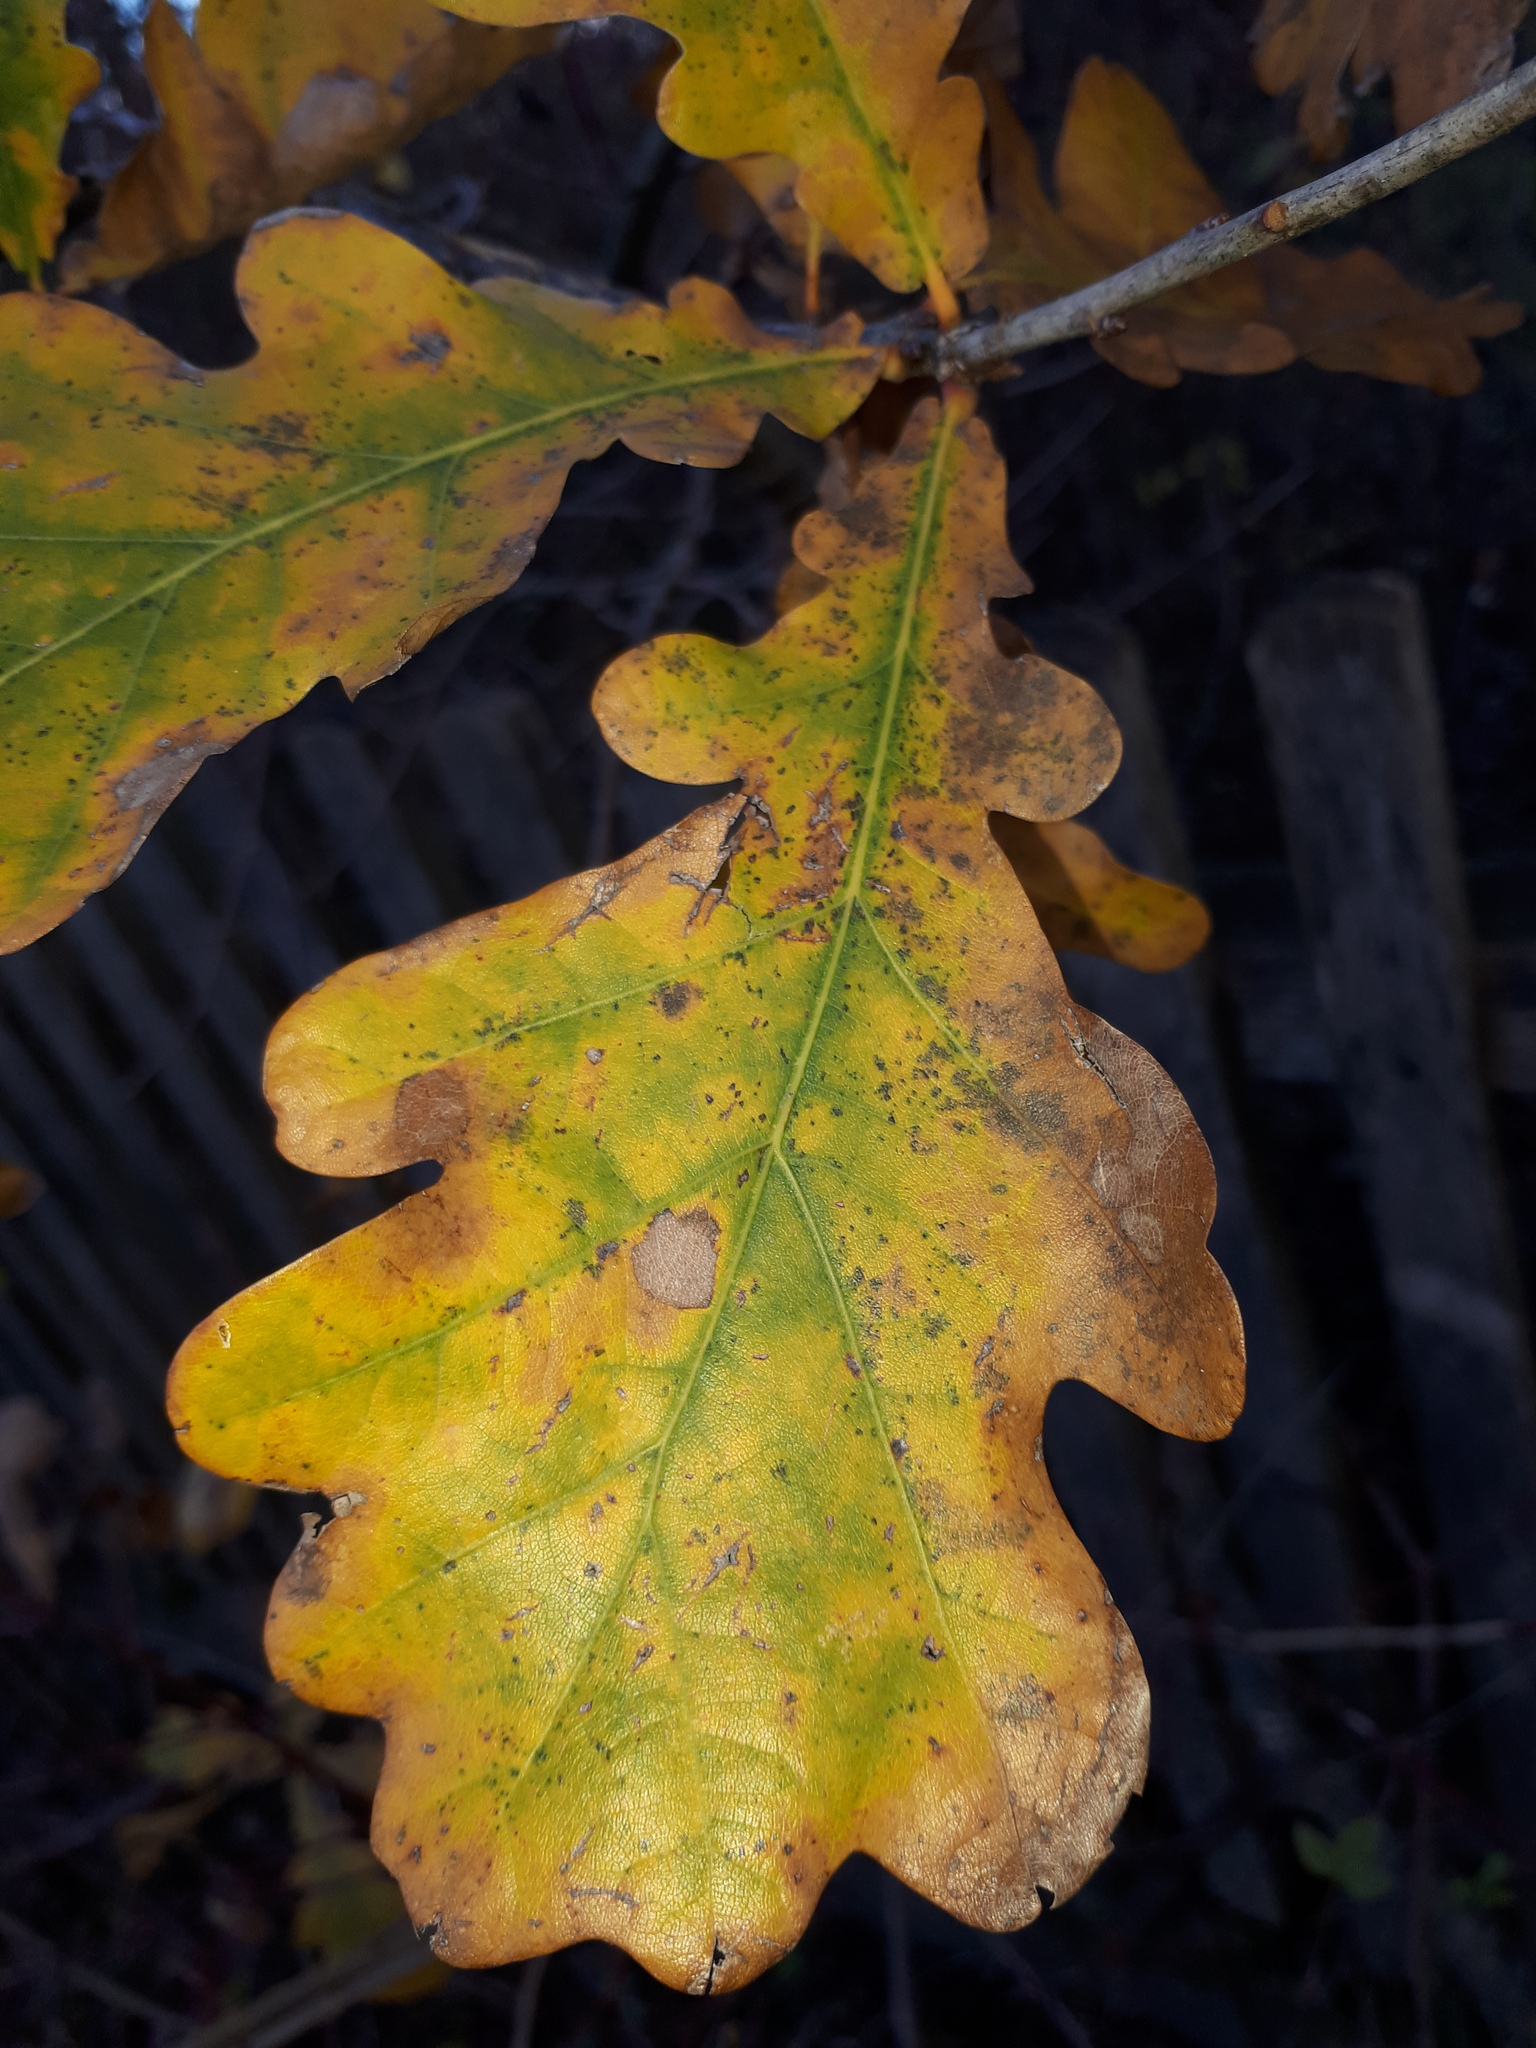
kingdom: Plantae
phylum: Tracheophyta
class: Magnoliopsida
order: Fagales
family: Fagaceae
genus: Quercus
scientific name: Quercus robur
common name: Pedunculate oak
